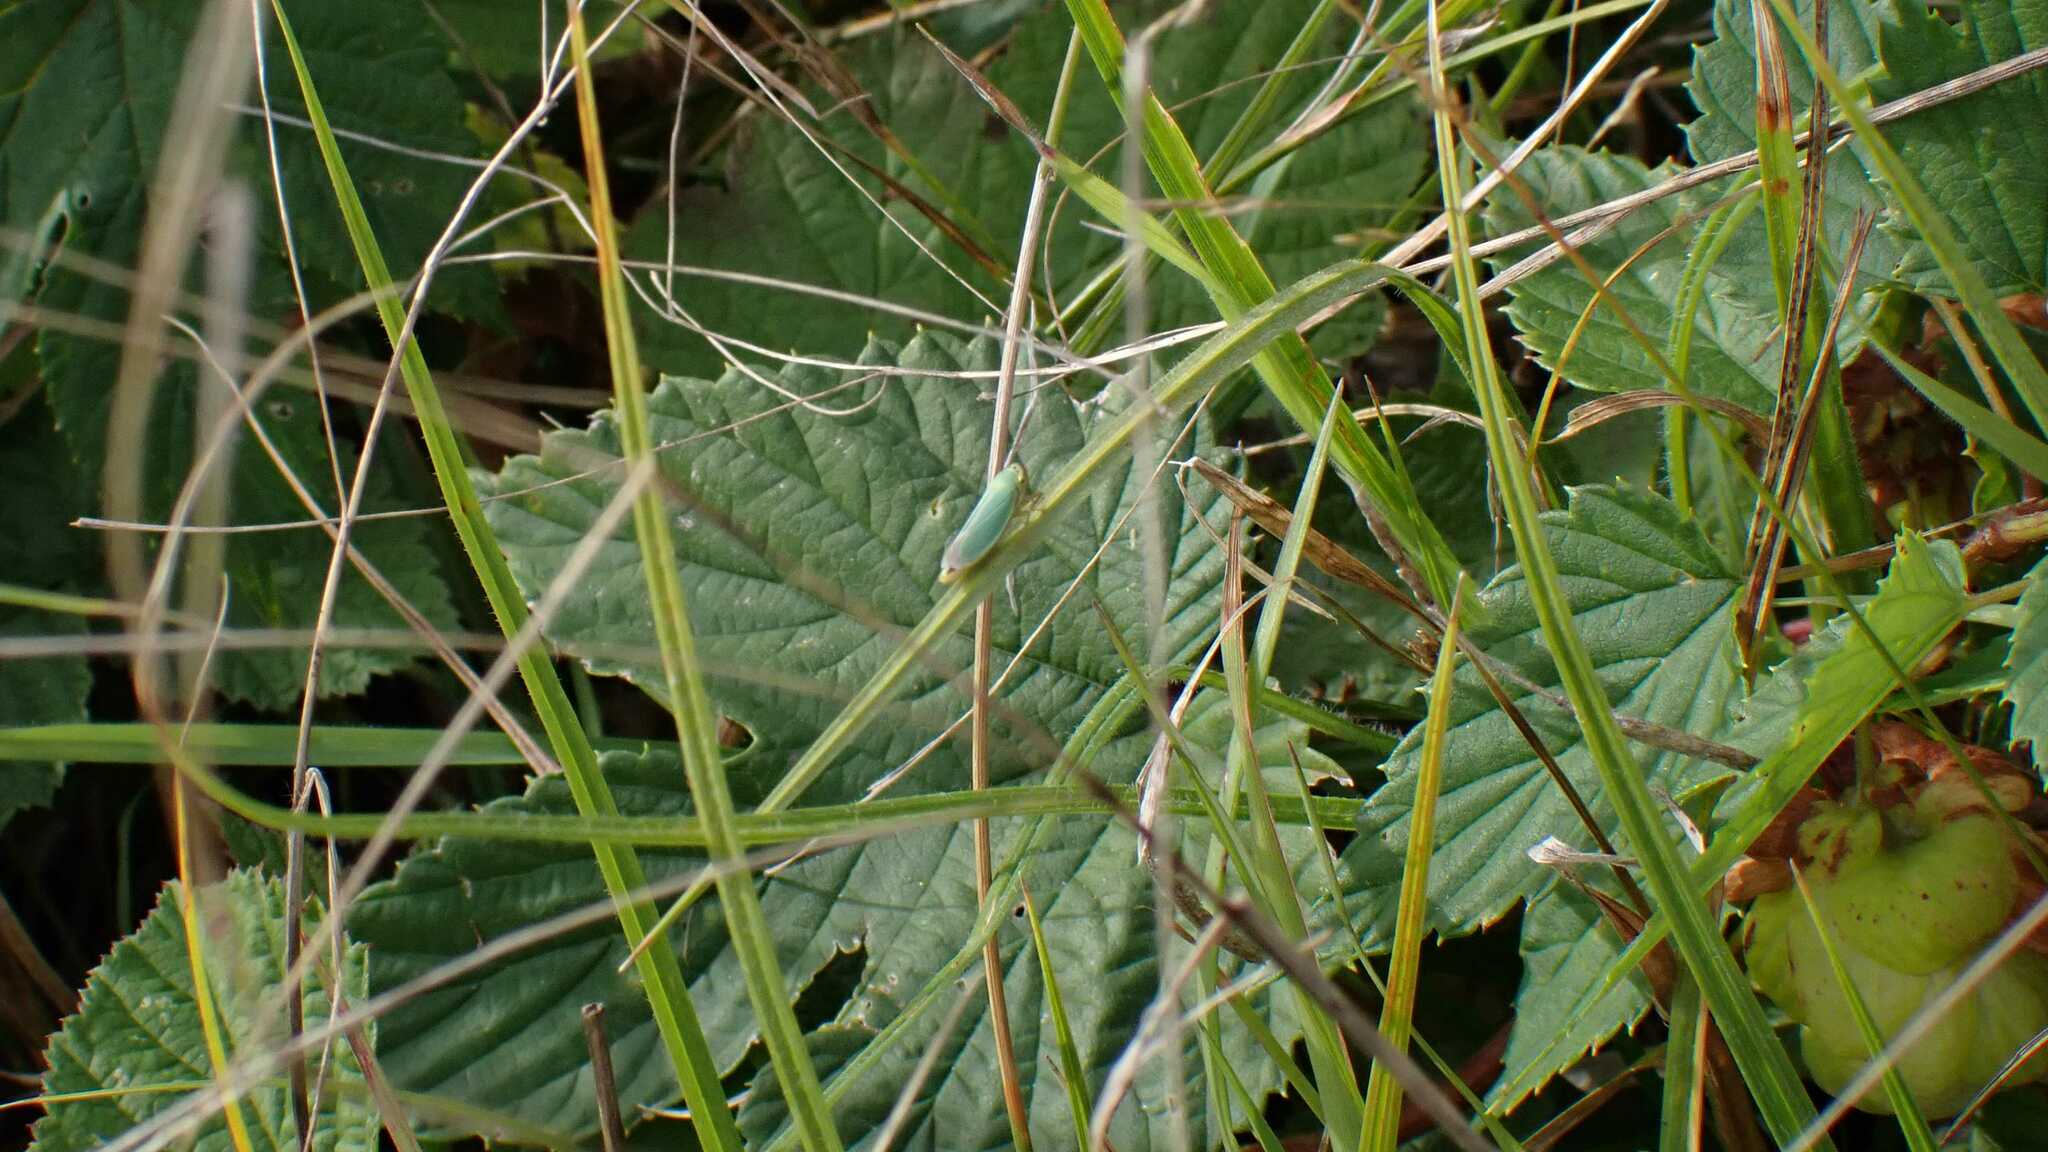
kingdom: Animalia
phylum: Arthropoda
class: Insecta
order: Hemiptera
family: Cicadellidae
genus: Cicadella
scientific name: Cicadella viridis
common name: Leafhopper
